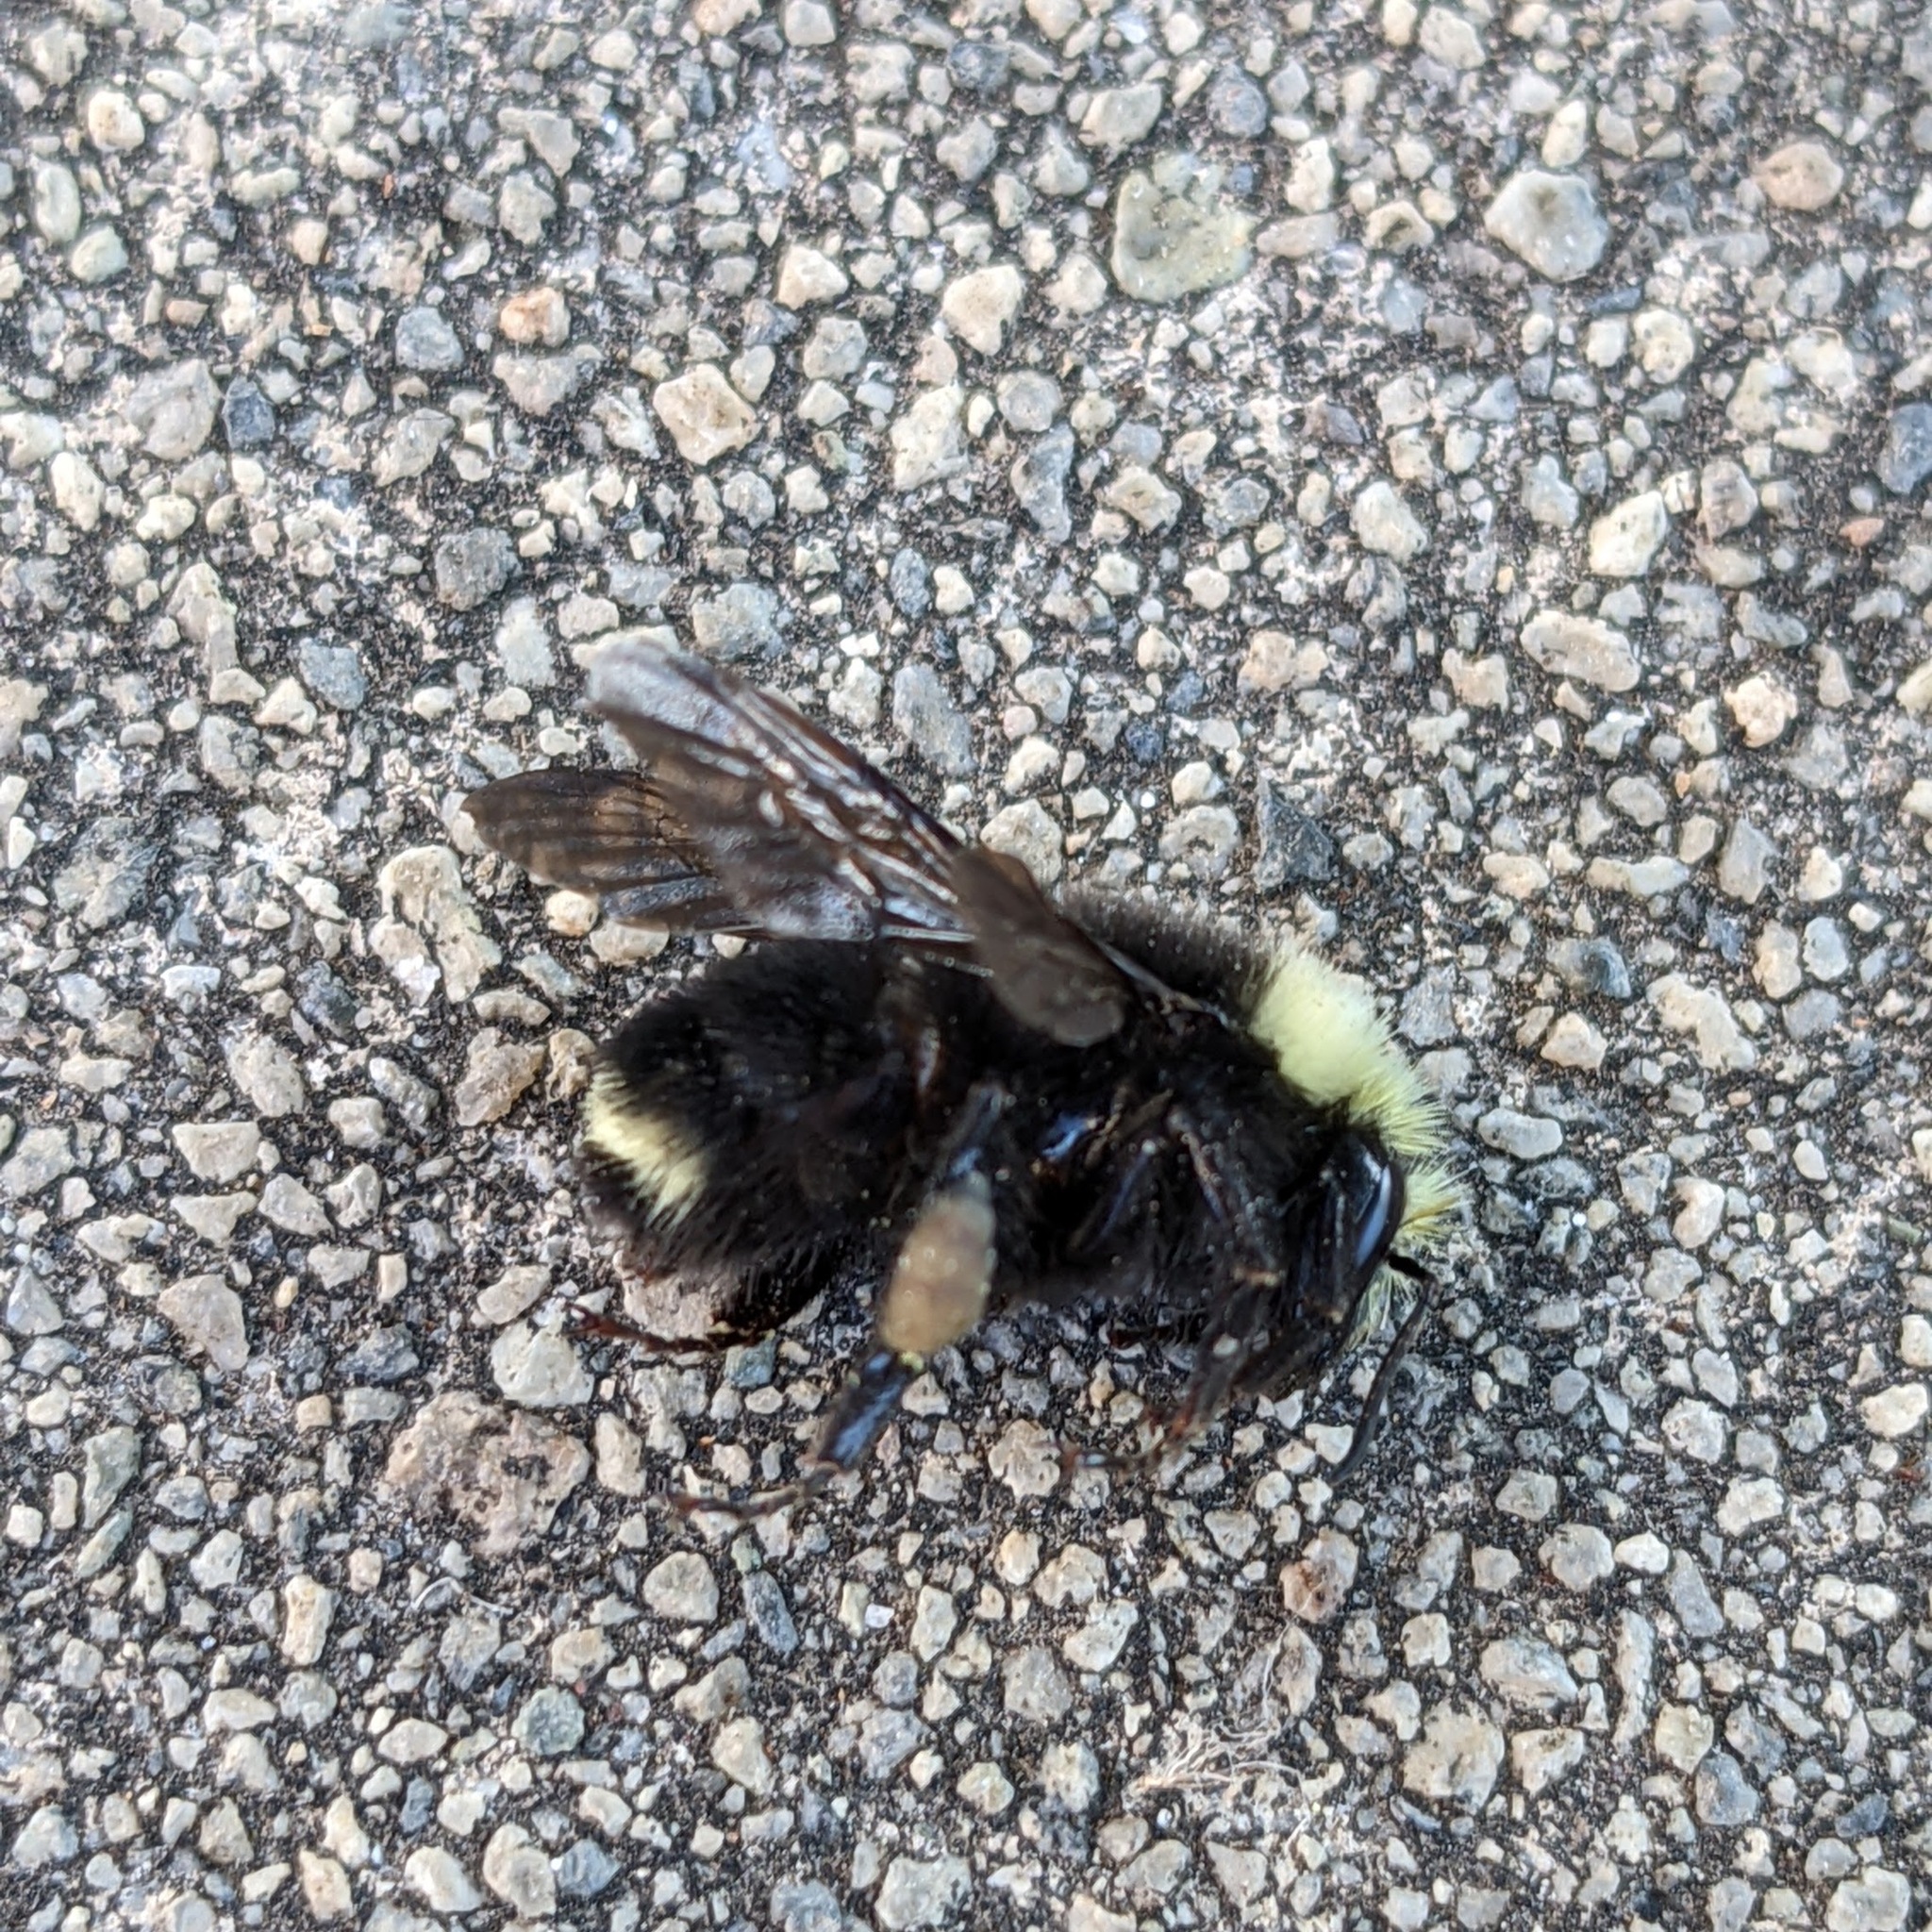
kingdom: Animalia
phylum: Arthropoda
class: Insecta
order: Hymenoptera
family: Apidae
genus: Bombus
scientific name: Bombus vosnesenskii
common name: Vosnesensky bumble bee
